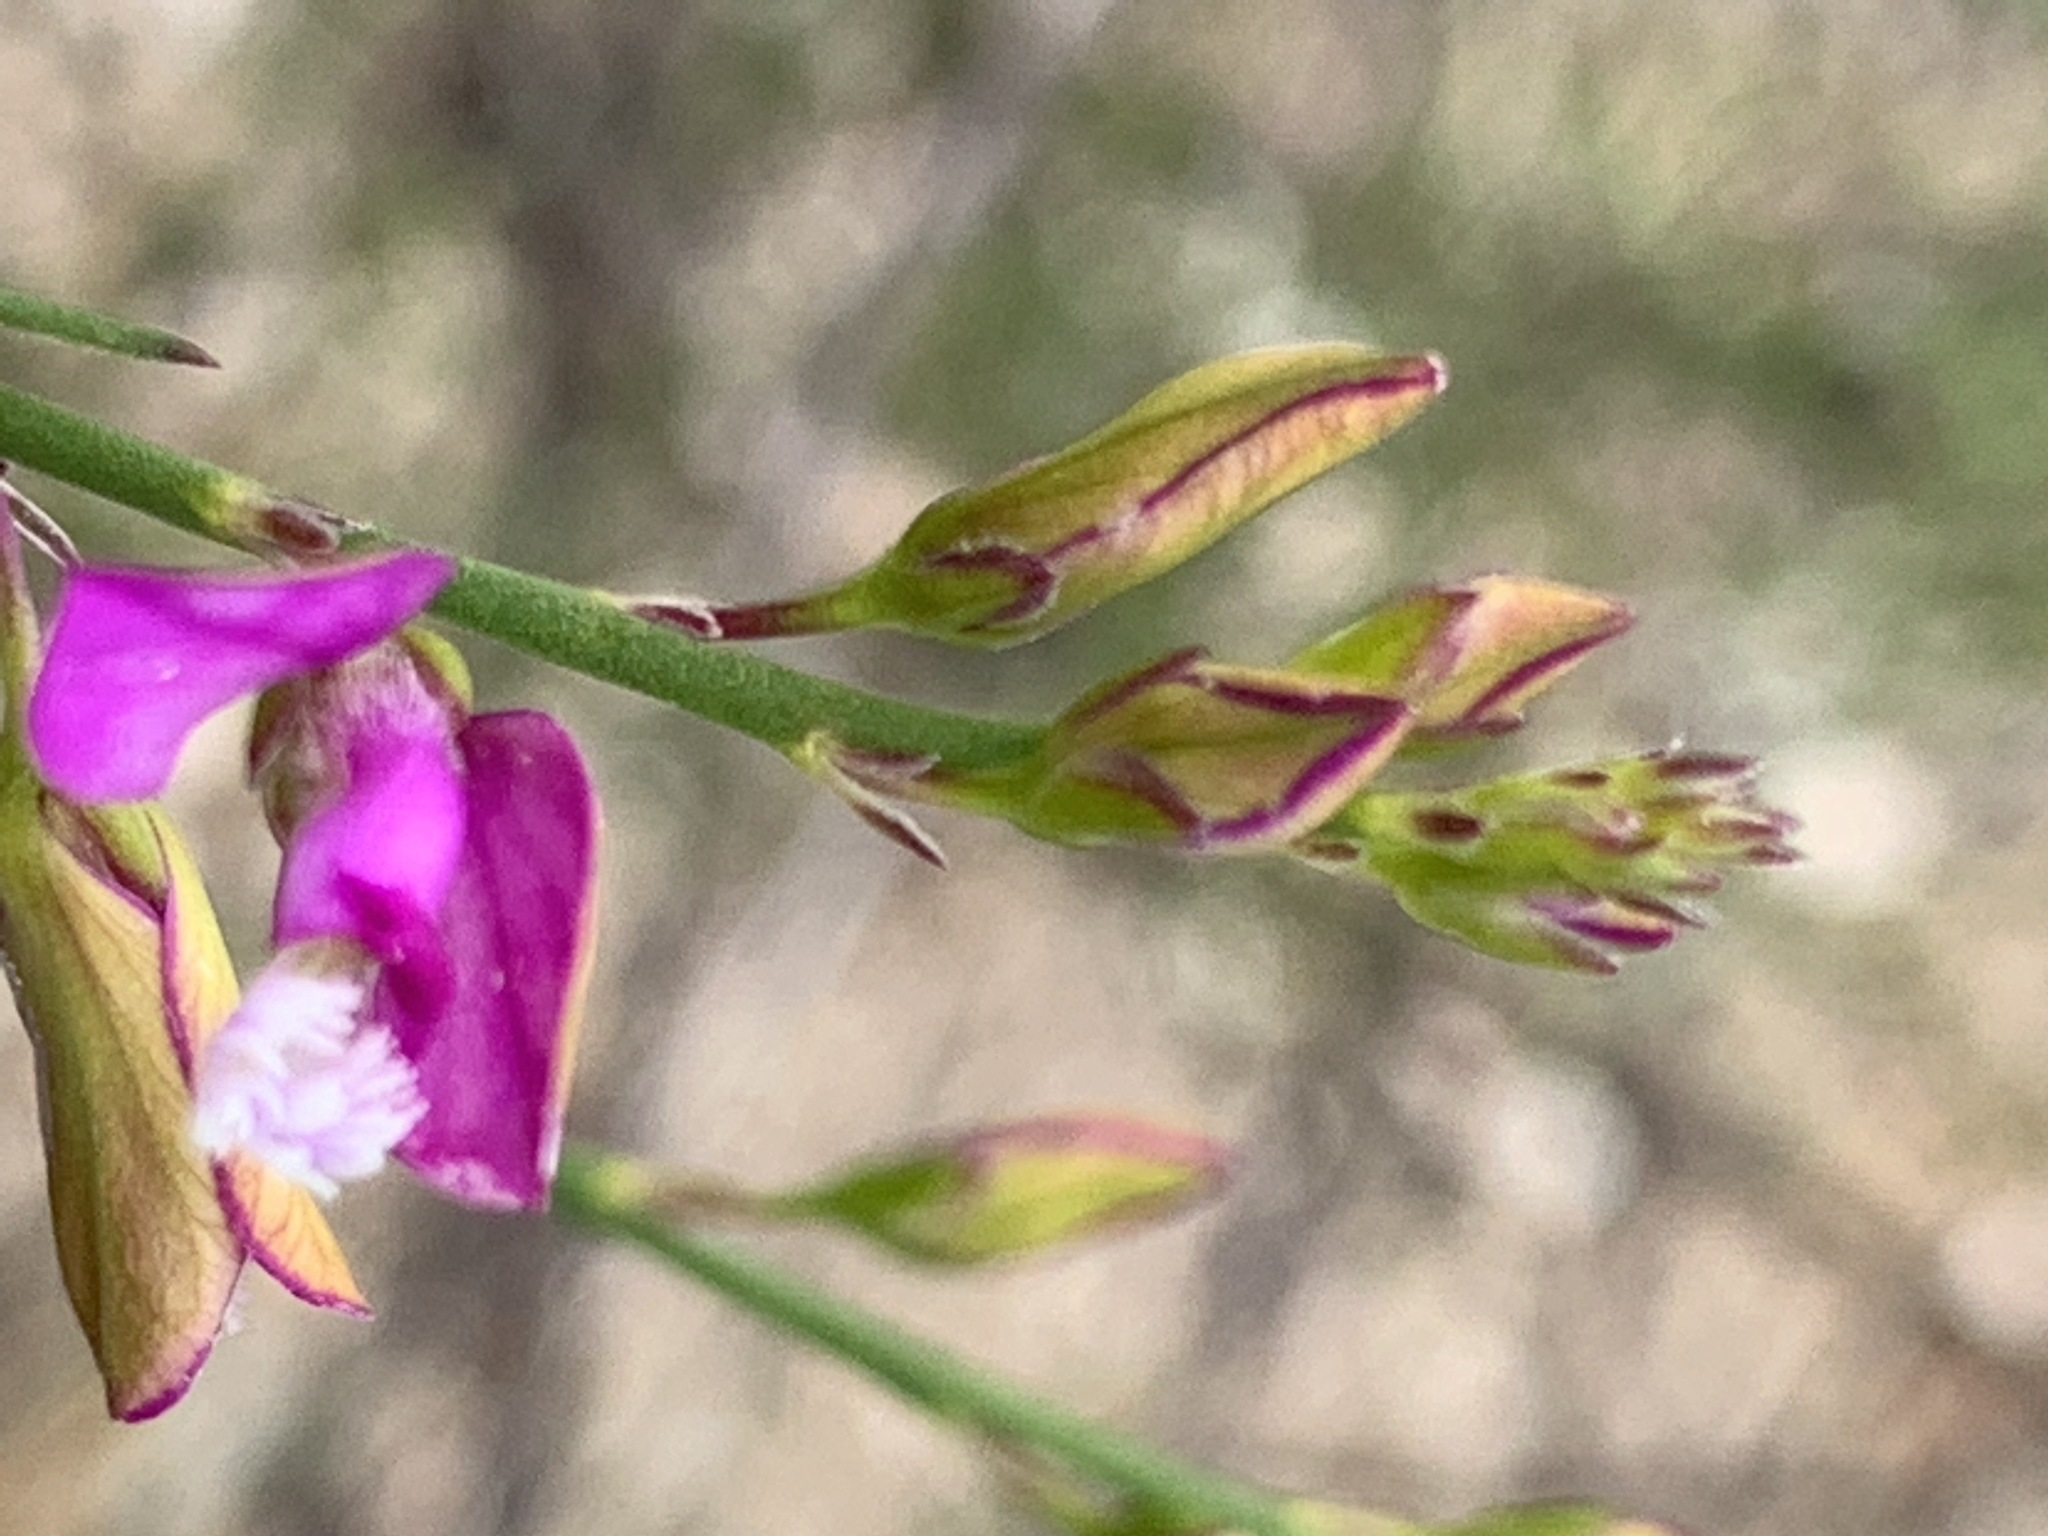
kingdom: Plantae
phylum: Tracheophyta
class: Magnoliopsida
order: Fabales
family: Polygalaceae
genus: Polygala
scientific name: Polygala garcini
